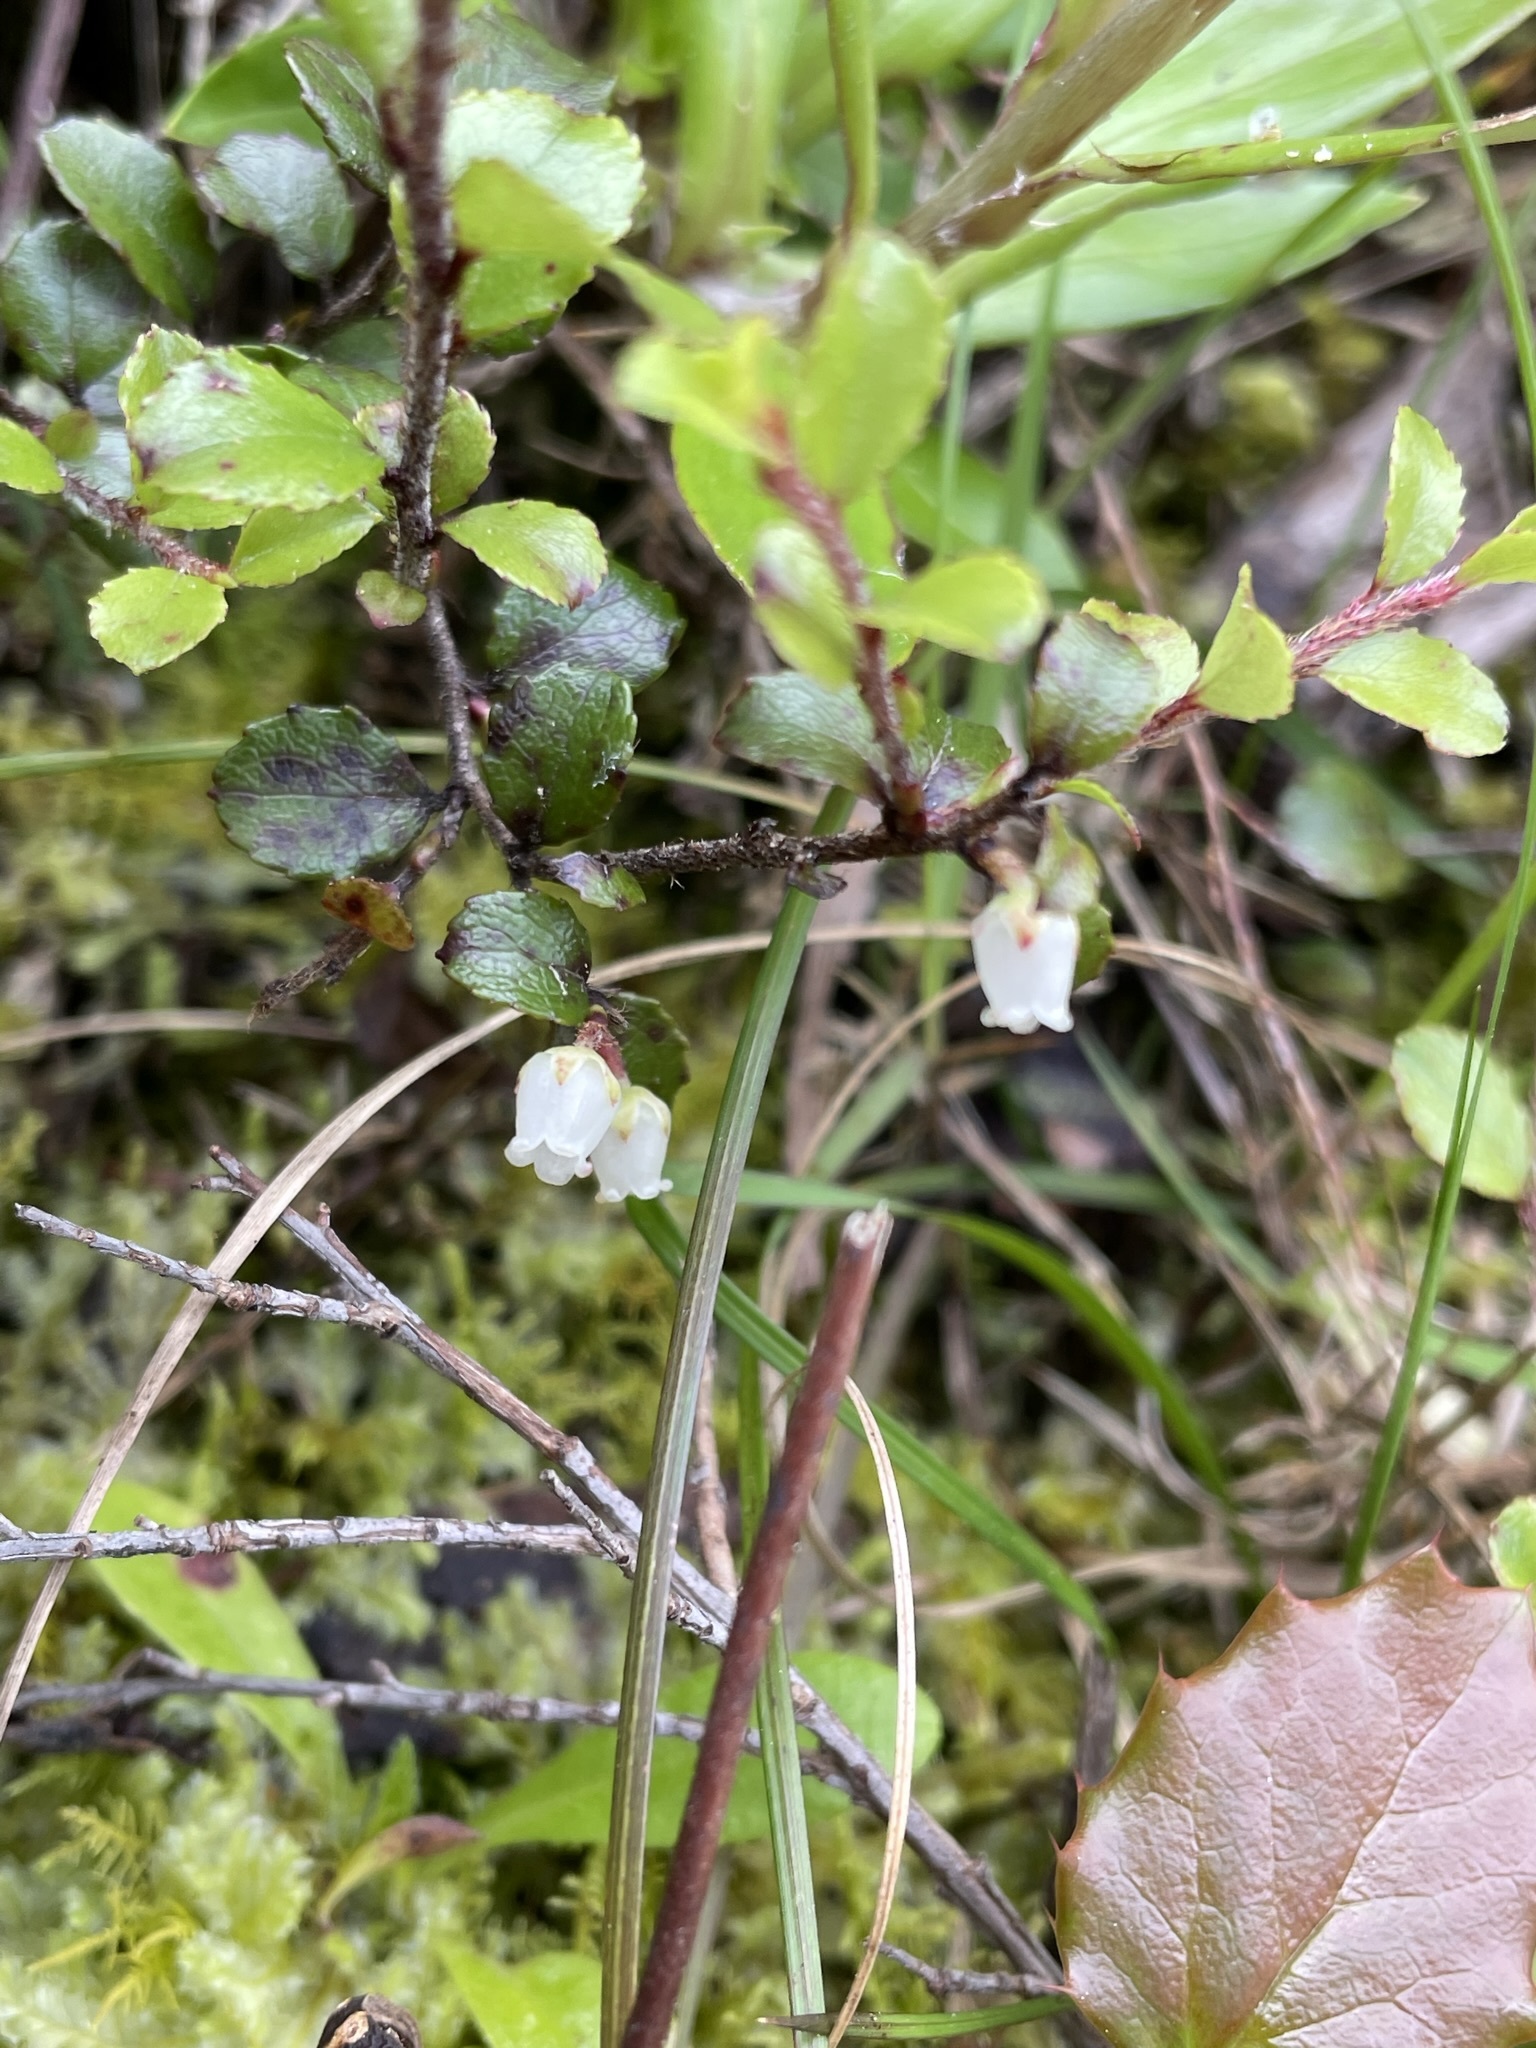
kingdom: Plantae
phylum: Tracheophyta
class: Magnoliopsida
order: Ericales
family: Ericaceae
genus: Gaultheria
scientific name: Gaultheria antipoda
